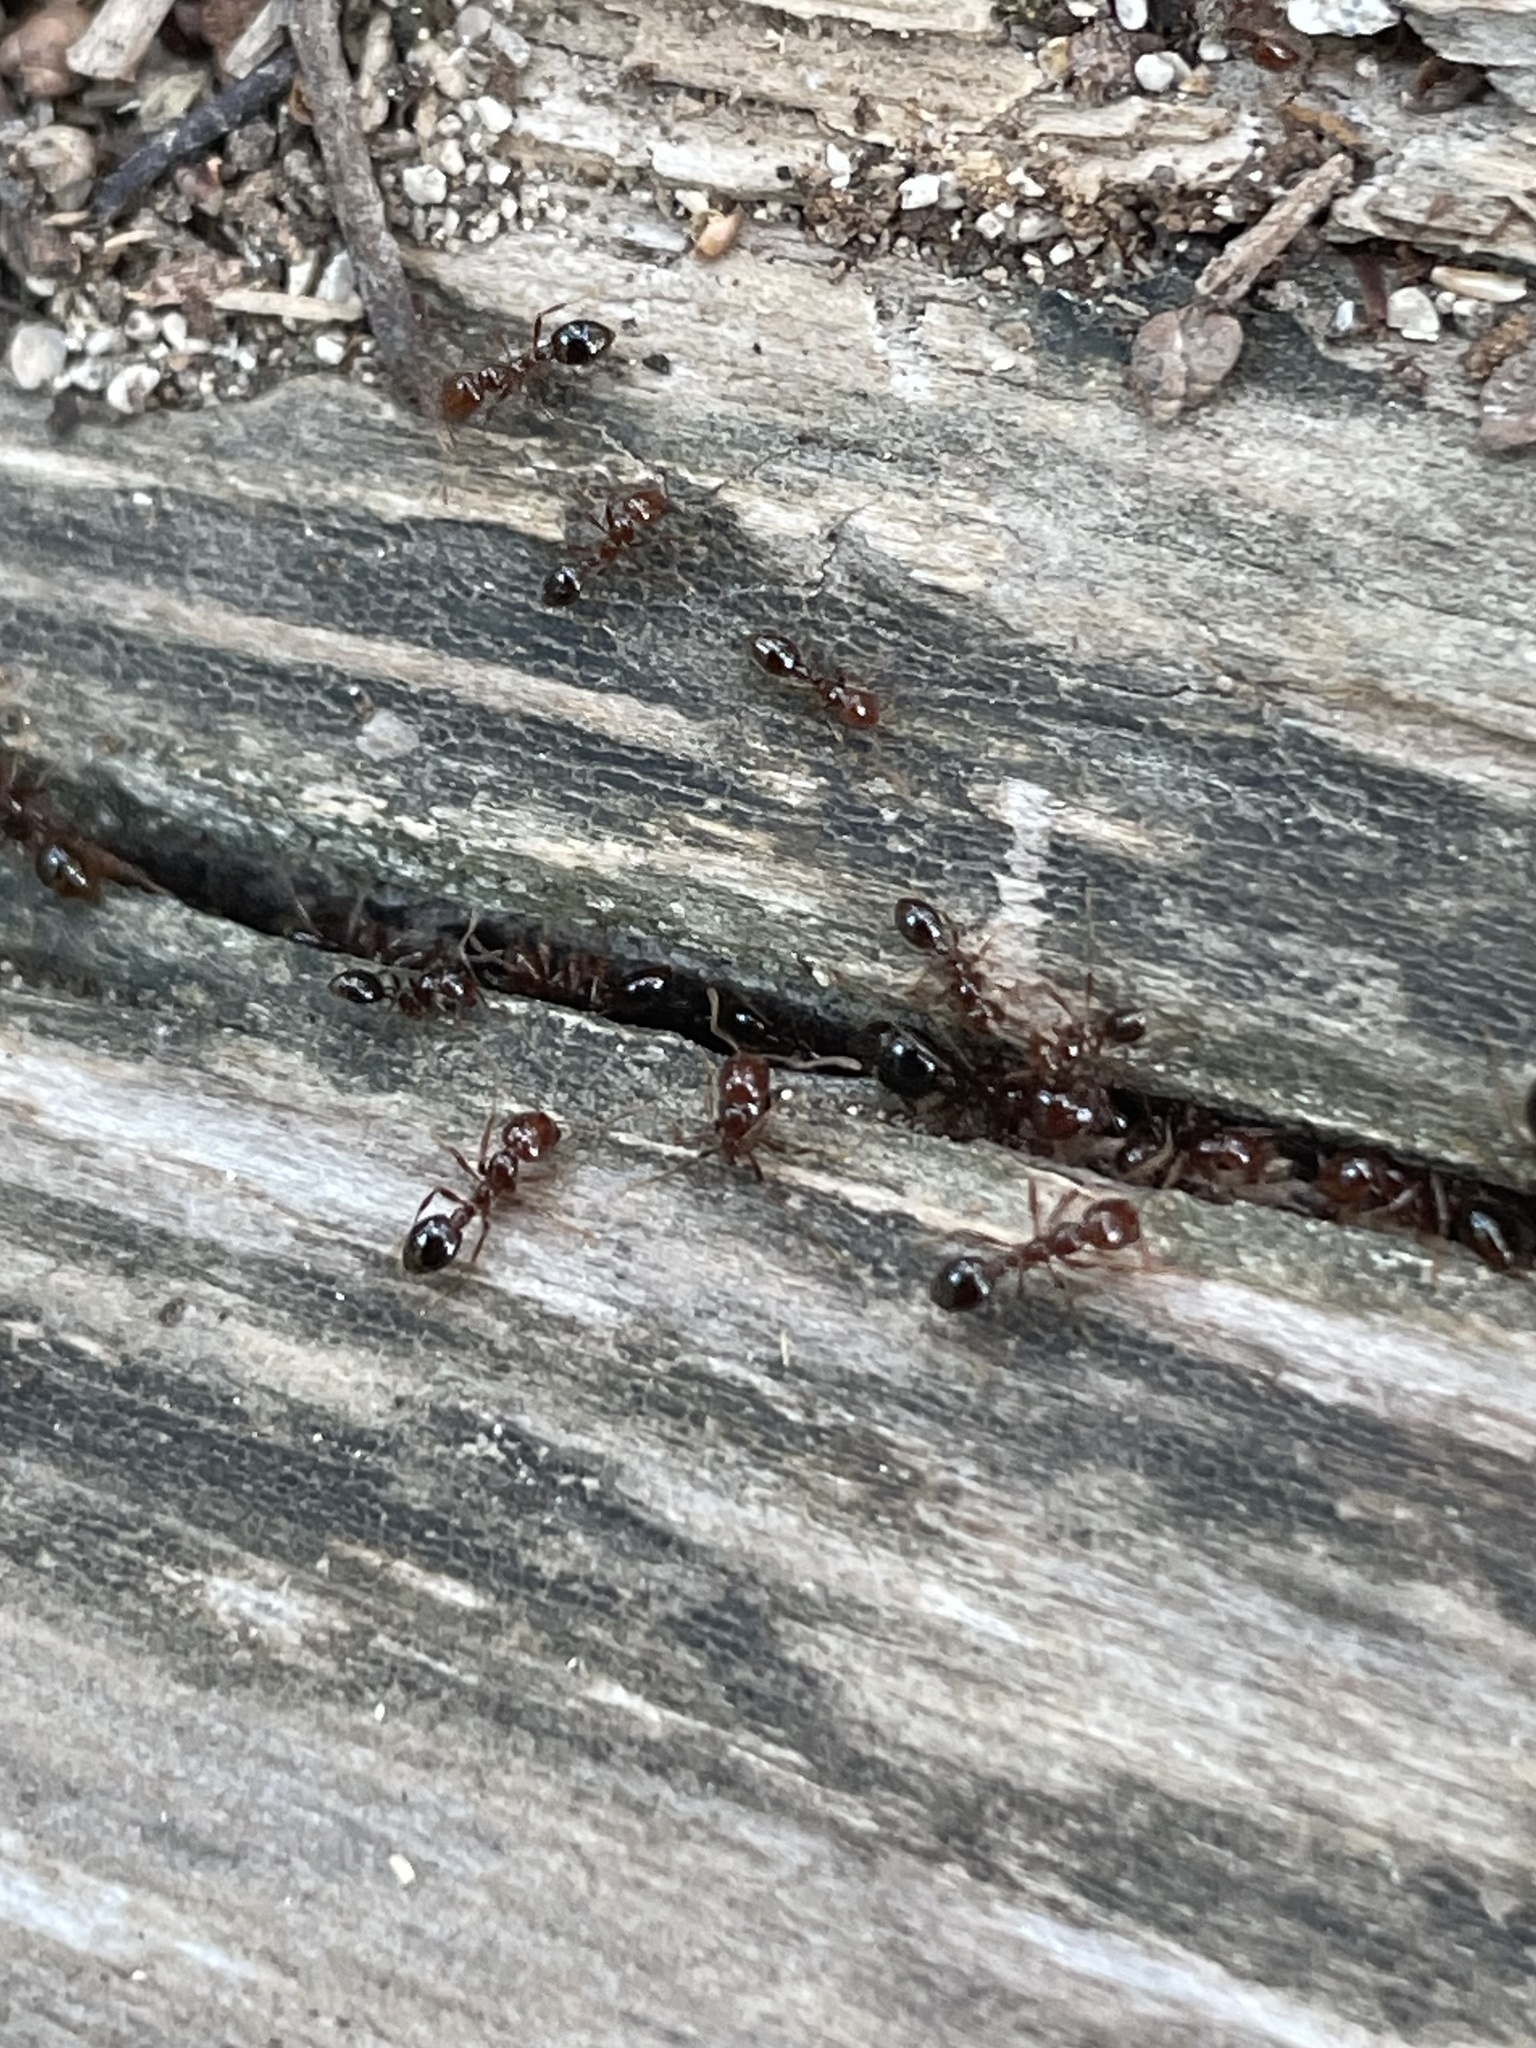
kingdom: Animalia
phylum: Arthropoda
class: Insecta
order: Hymenoptera
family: Formicidae
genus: Solenopsis
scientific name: Solenopsis invicta
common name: Red imported fire ant
